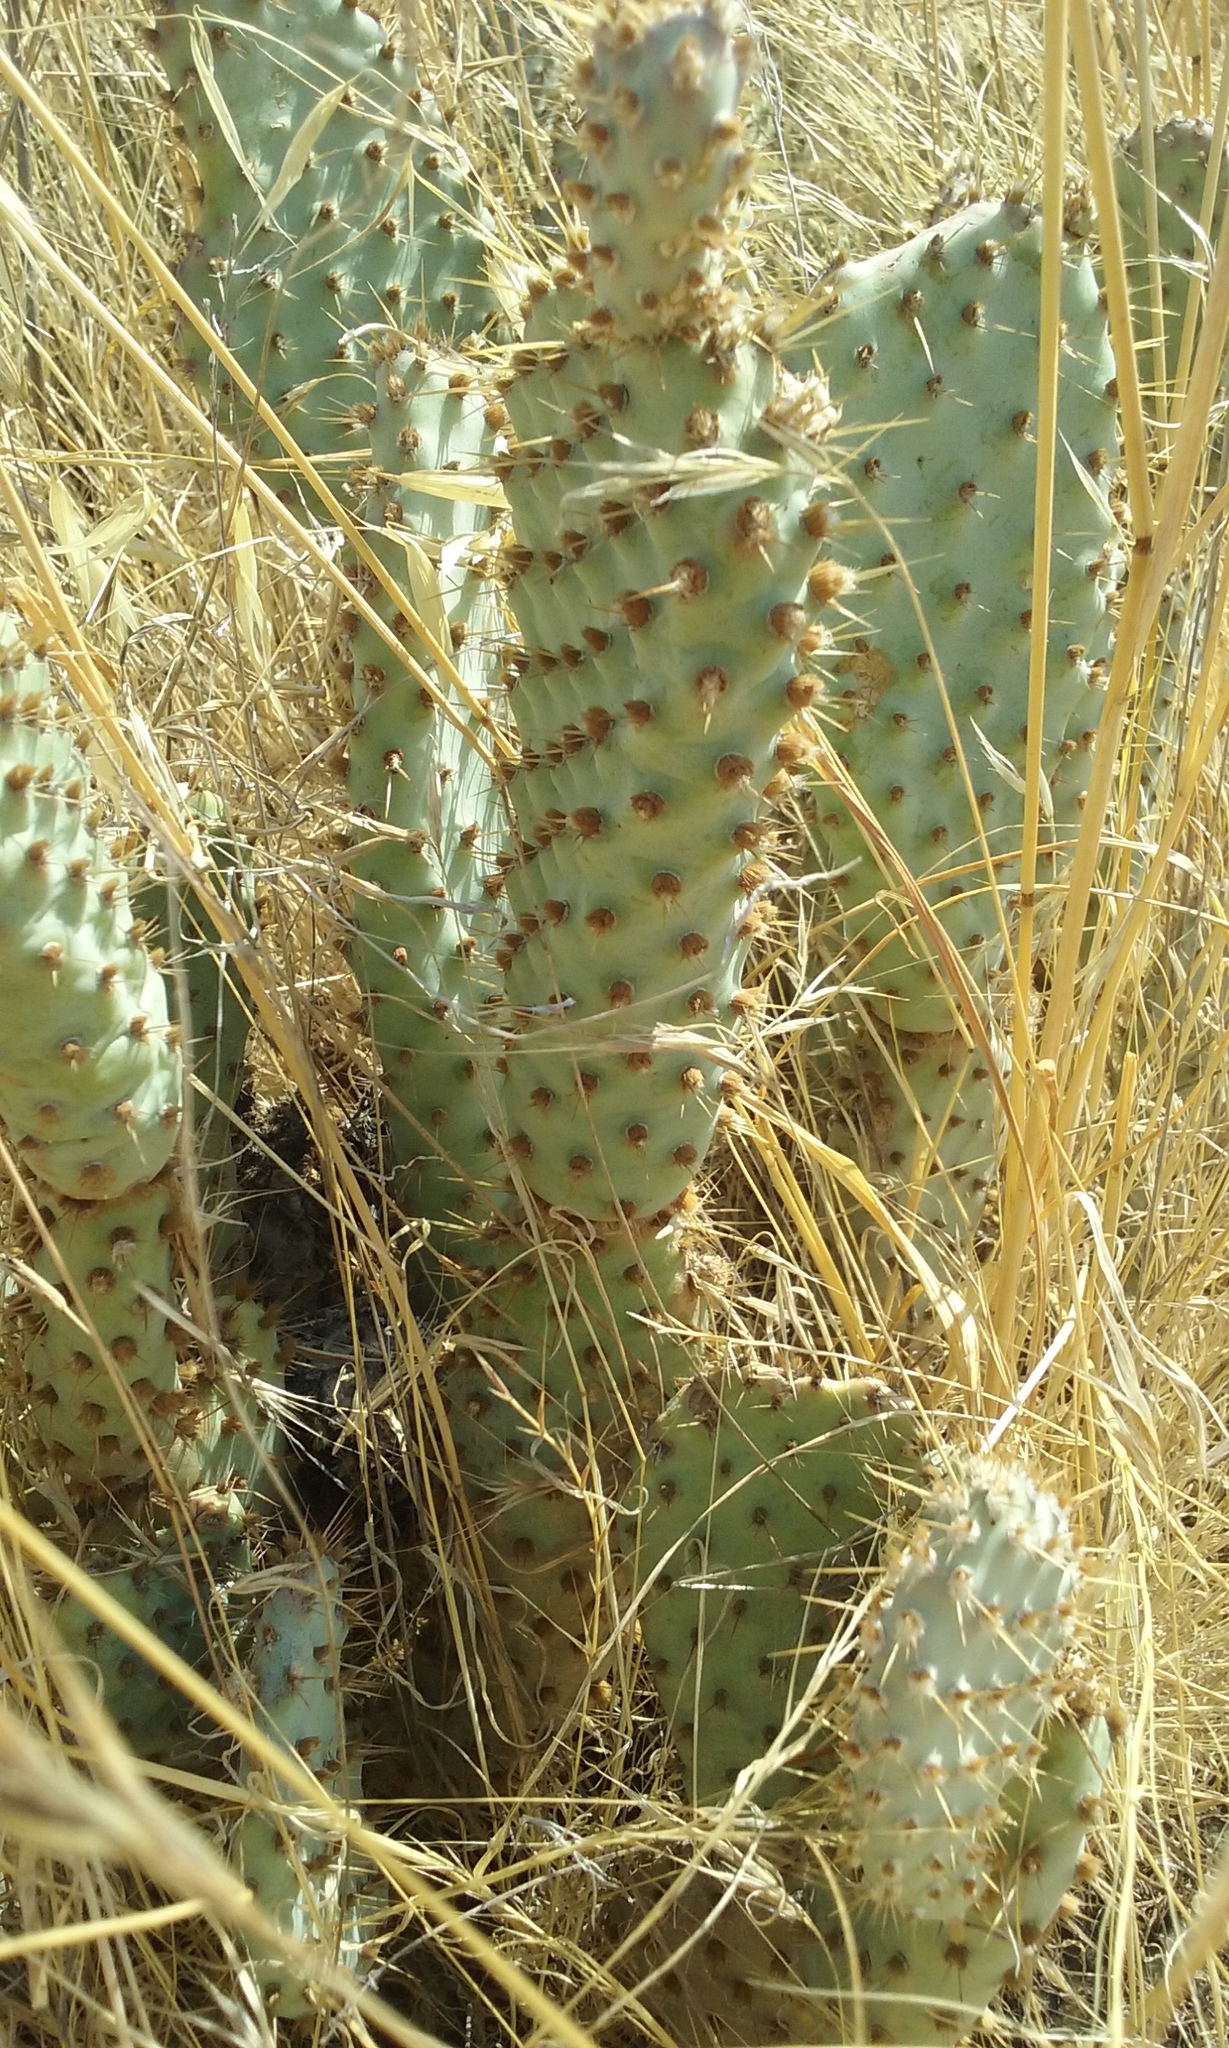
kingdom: Plantae
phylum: Tracheophyta
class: Magnoliopsida
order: Caryophyllales
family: Cactaceae
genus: Opuntia
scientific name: Opuntia basilaris
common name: Beavertail prickly-pear
